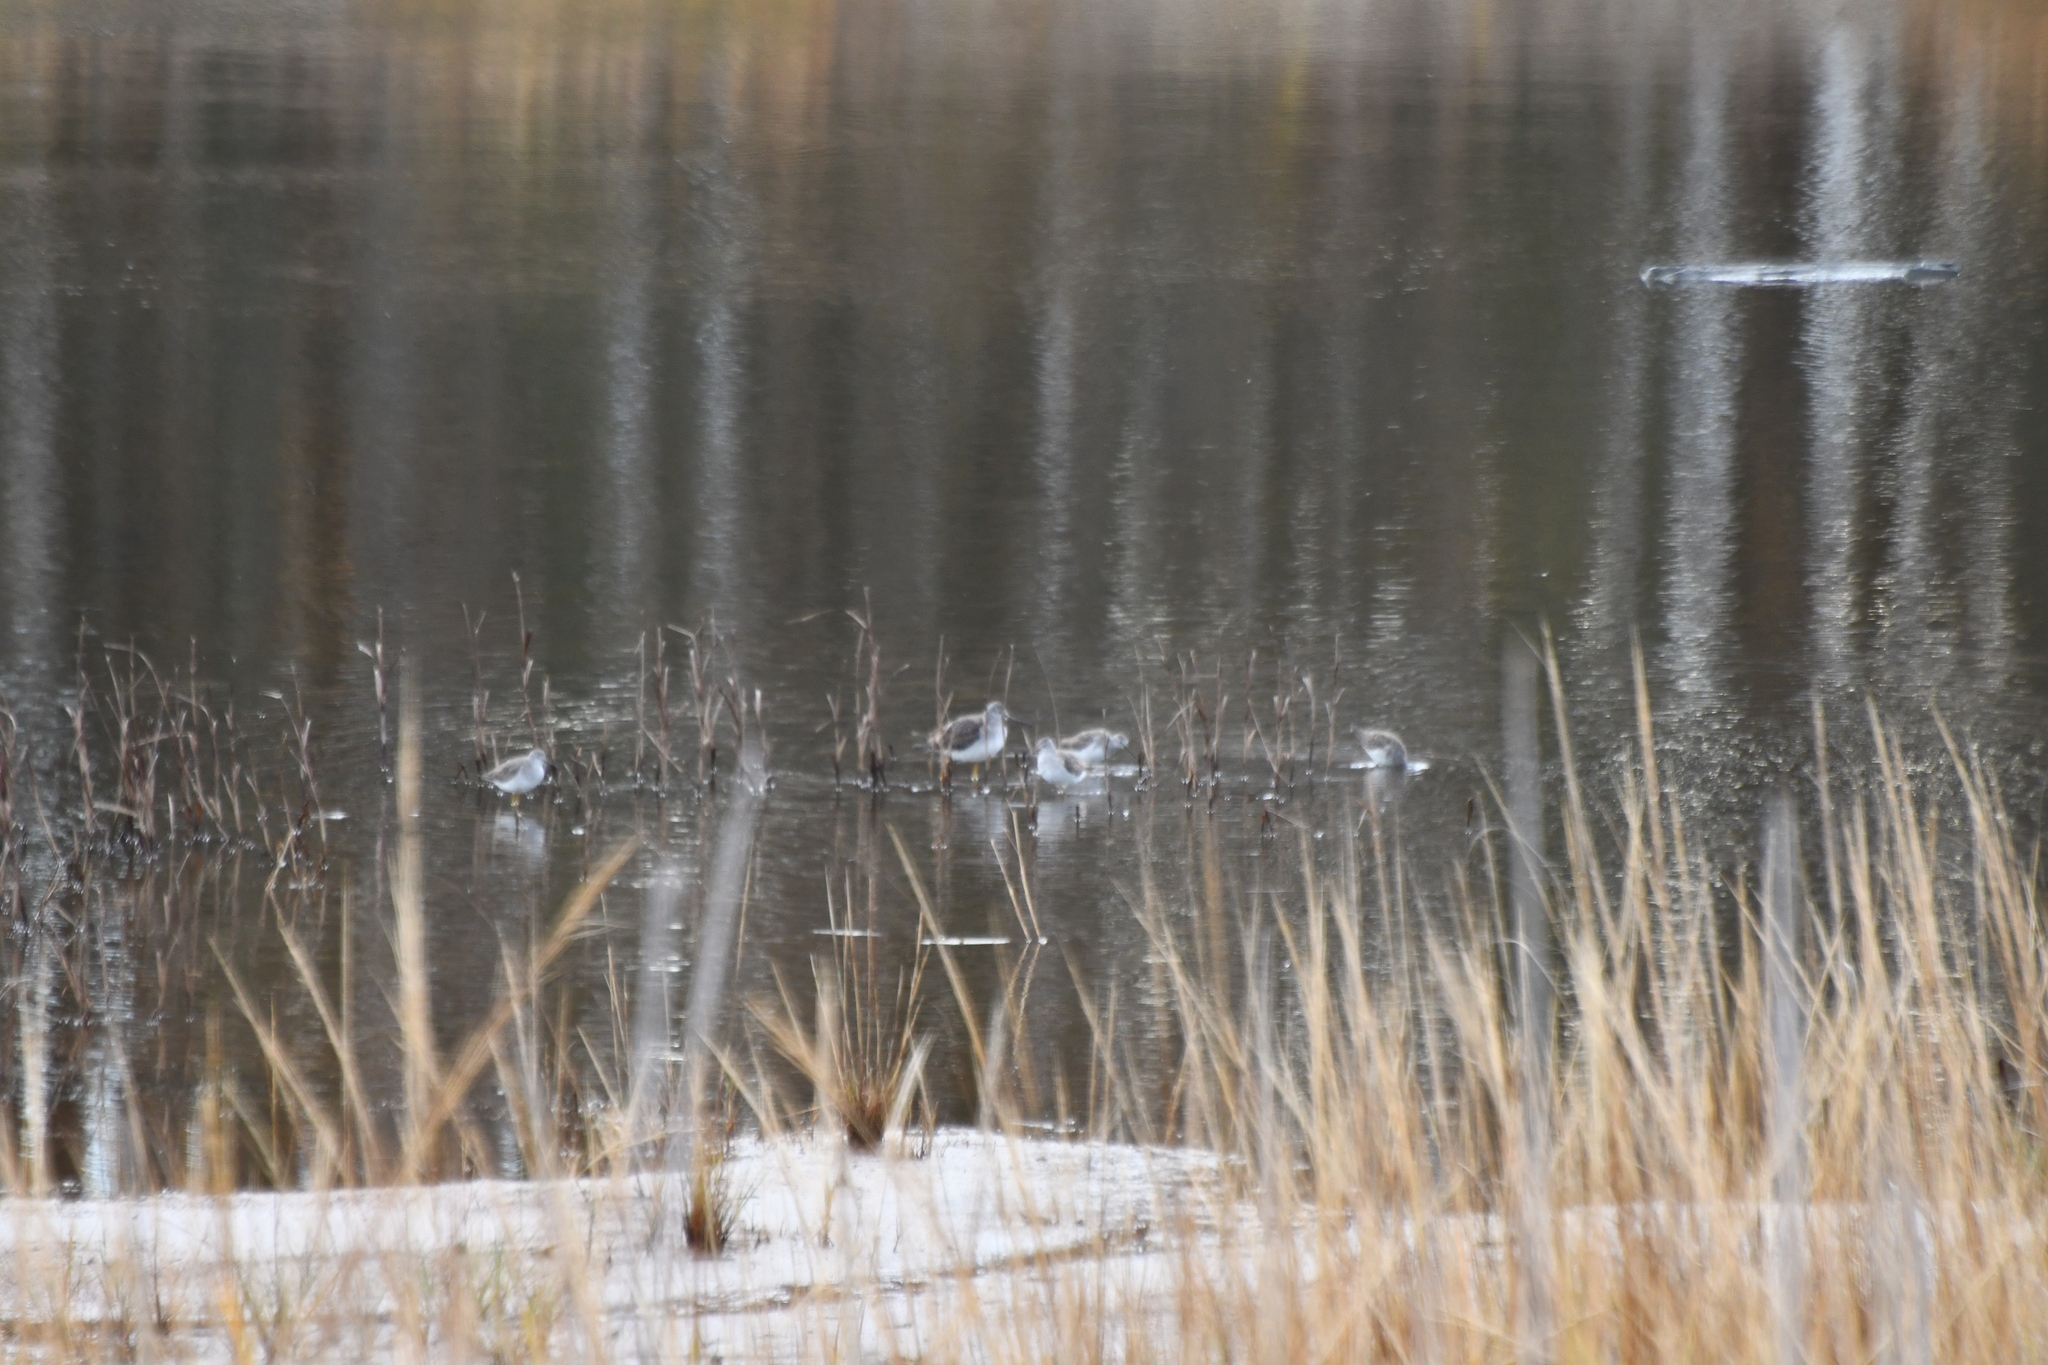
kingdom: Animalia
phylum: Chordata
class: Aves
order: Charadriiformes
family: Scolopacidae
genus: Tringa
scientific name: Tringa melanoleuca
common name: Greater yellowlegs
